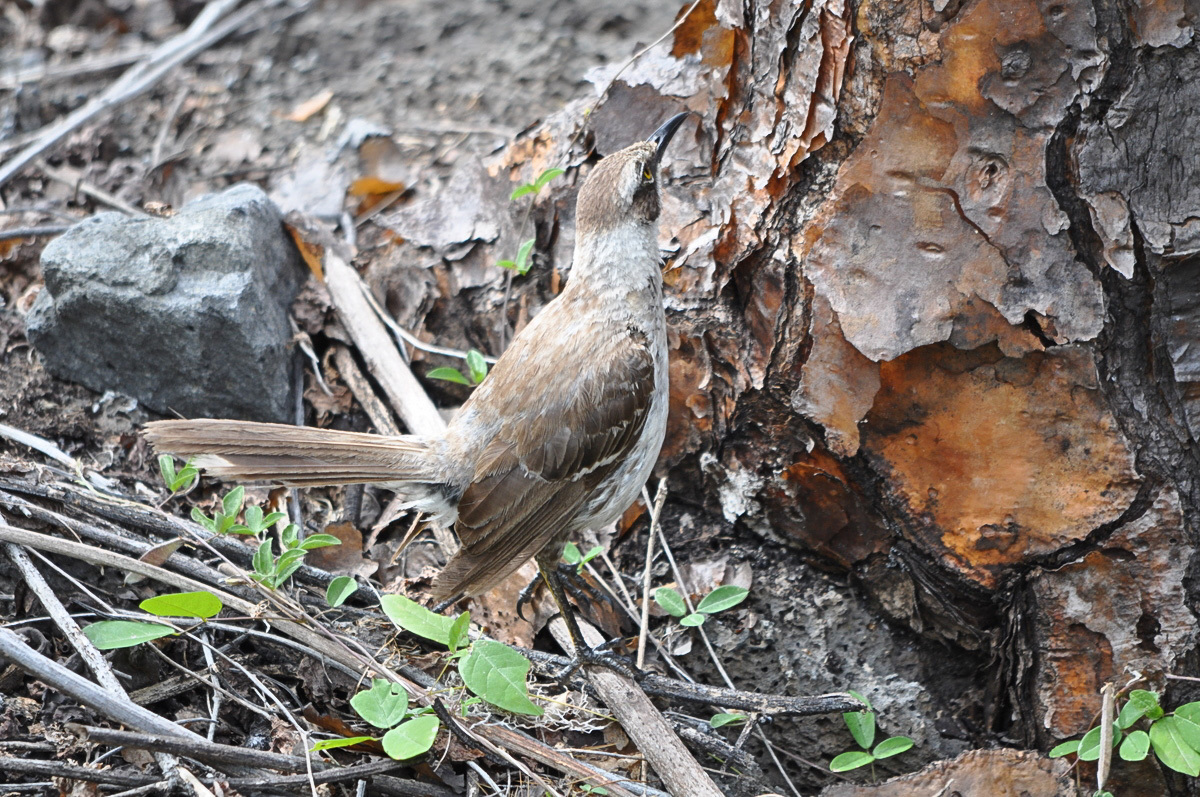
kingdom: Animalia
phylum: Chordata
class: Aves
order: Passeriformes
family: Mimidae
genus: Mimus
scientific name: Mimus parvulus
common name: Galapagos mockingbird
